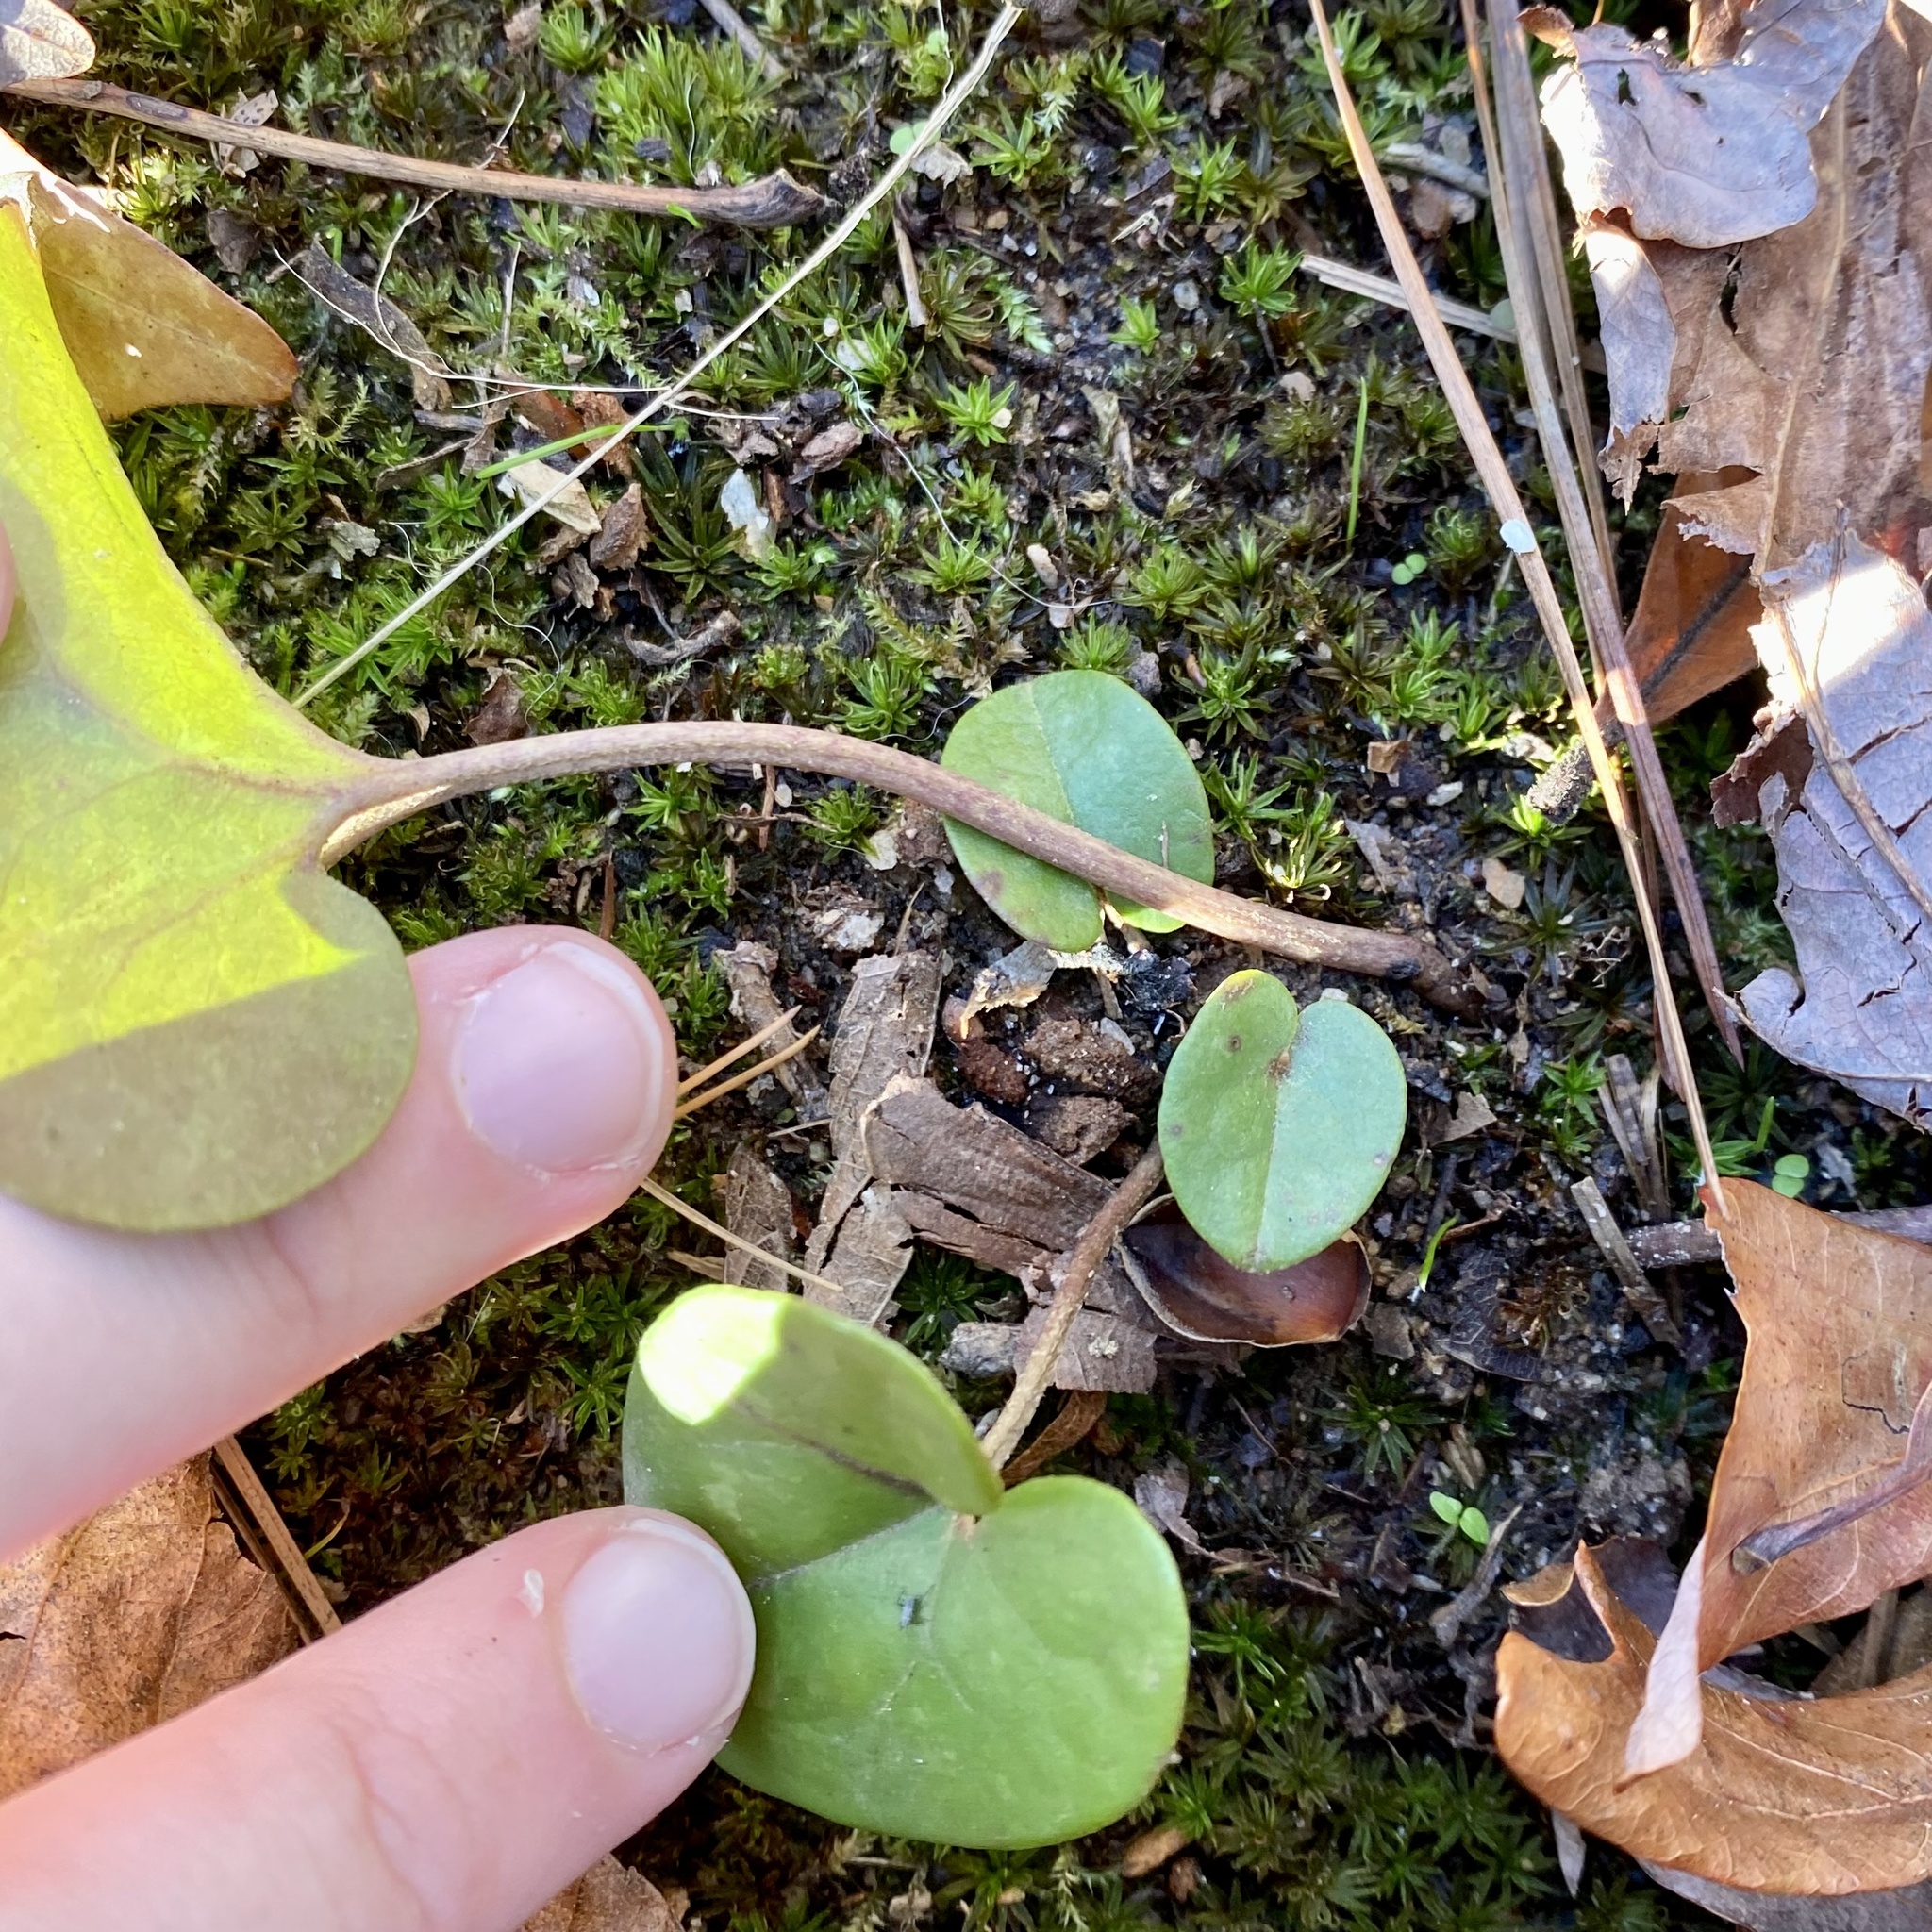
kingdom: Plantae
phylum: Tracheophyta
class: Magnoliopsida
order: Piperales
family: Aristolochiaceae
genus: Hexastylis
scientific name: Hexastylis arifolia
